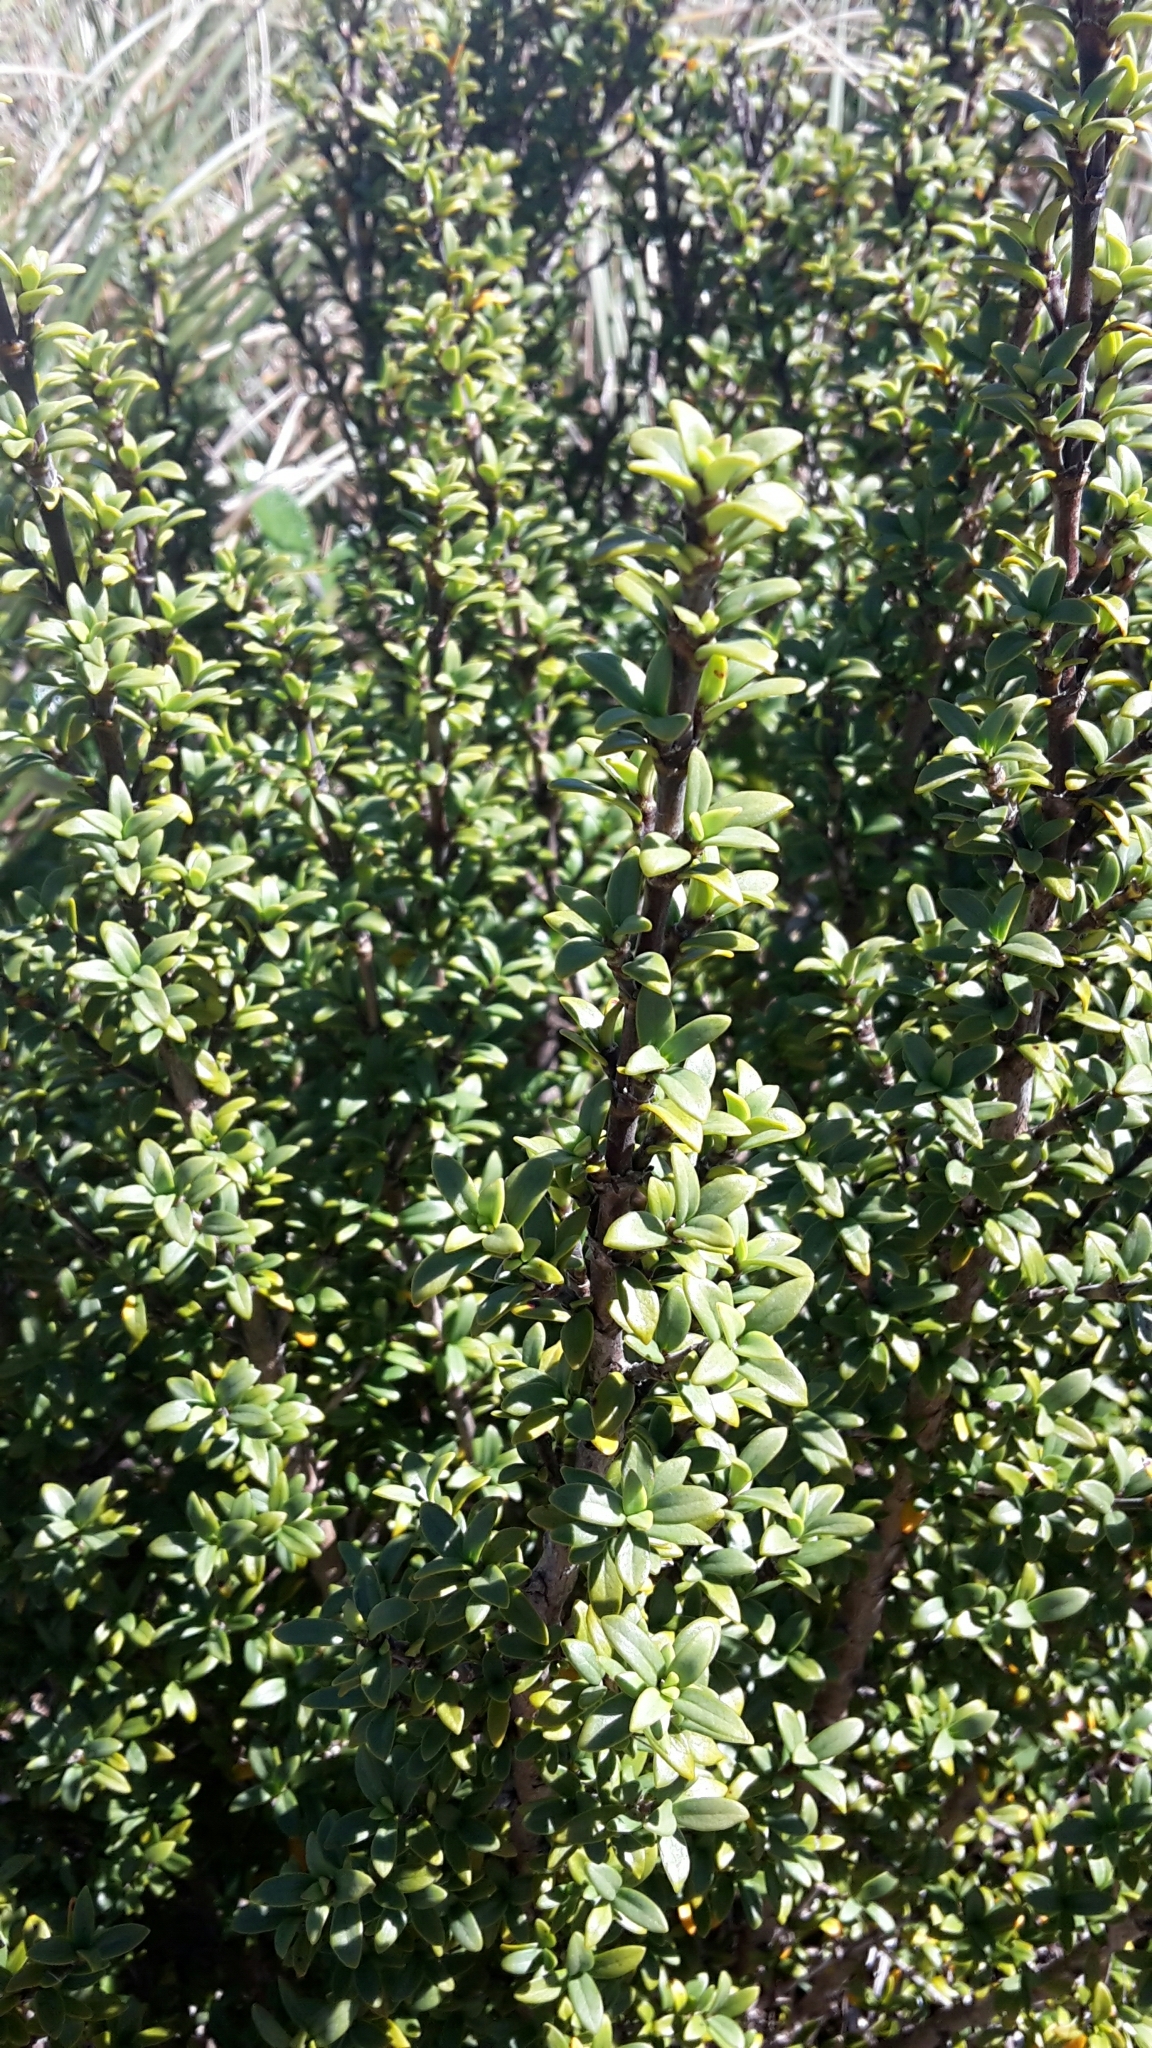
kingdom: Plantae
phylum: Tracheophyta
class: Magnoliopsida
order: Gentianales
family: Rubiaceae
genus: Coprosma
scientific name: Coprosma pseudocuneata
